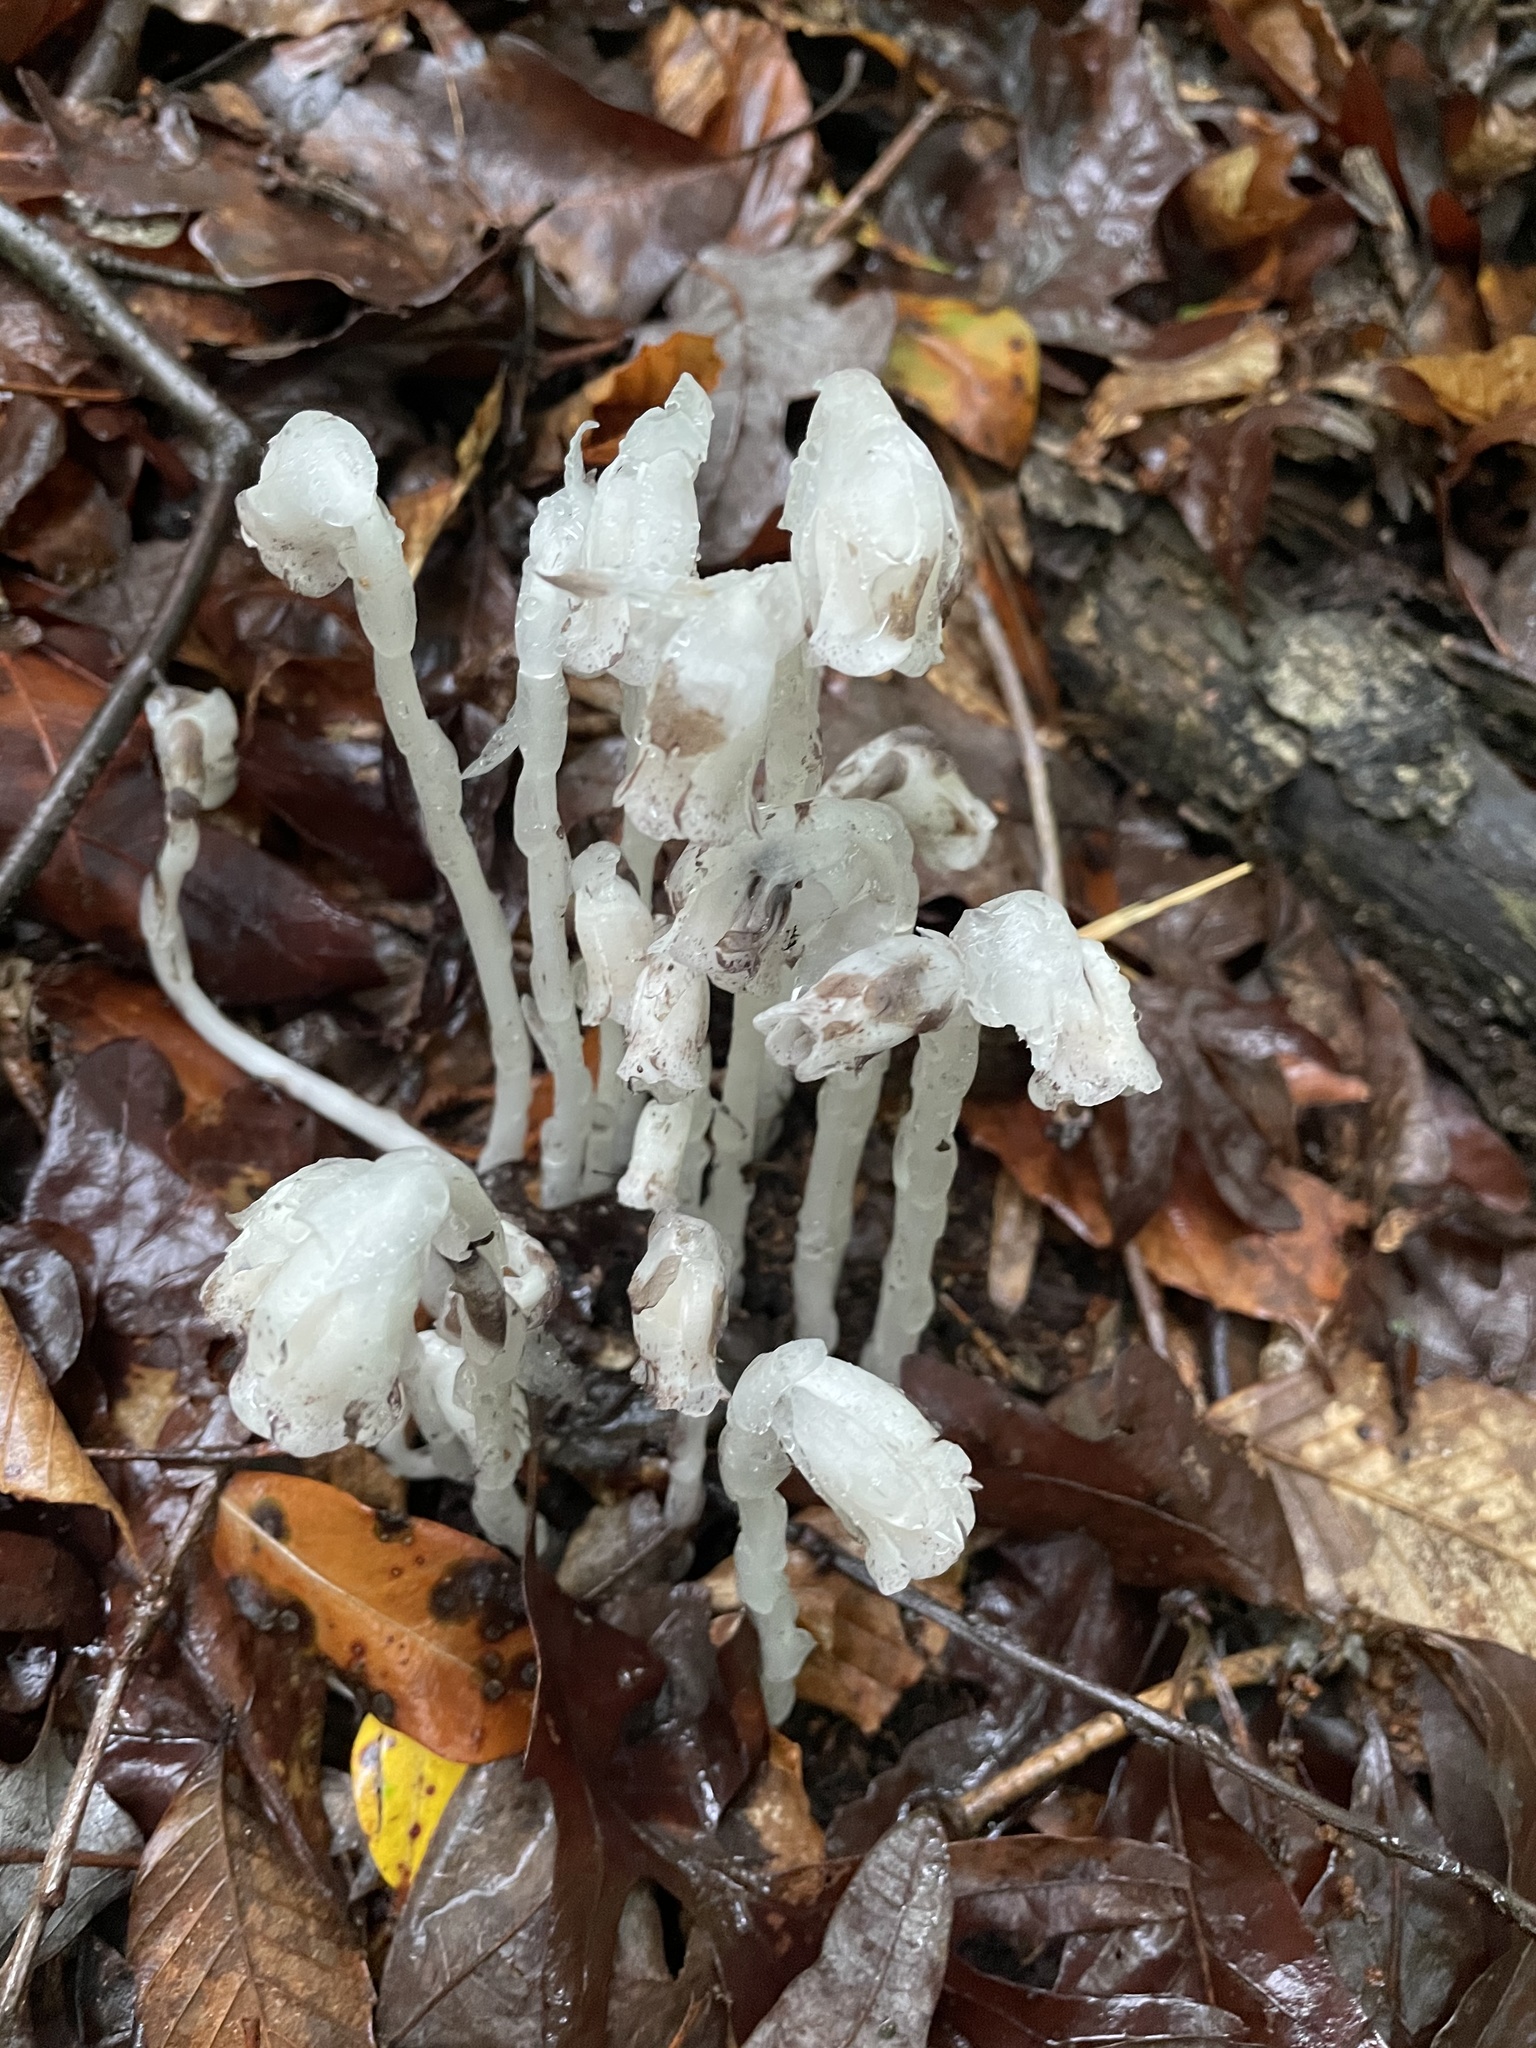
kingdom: Plantae
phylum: Tracheophyta
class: Magnoliopsida
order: Ericales
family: Ericaceae
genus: Monotropa
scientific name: Monotropa uniflora
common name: Convulsion root
